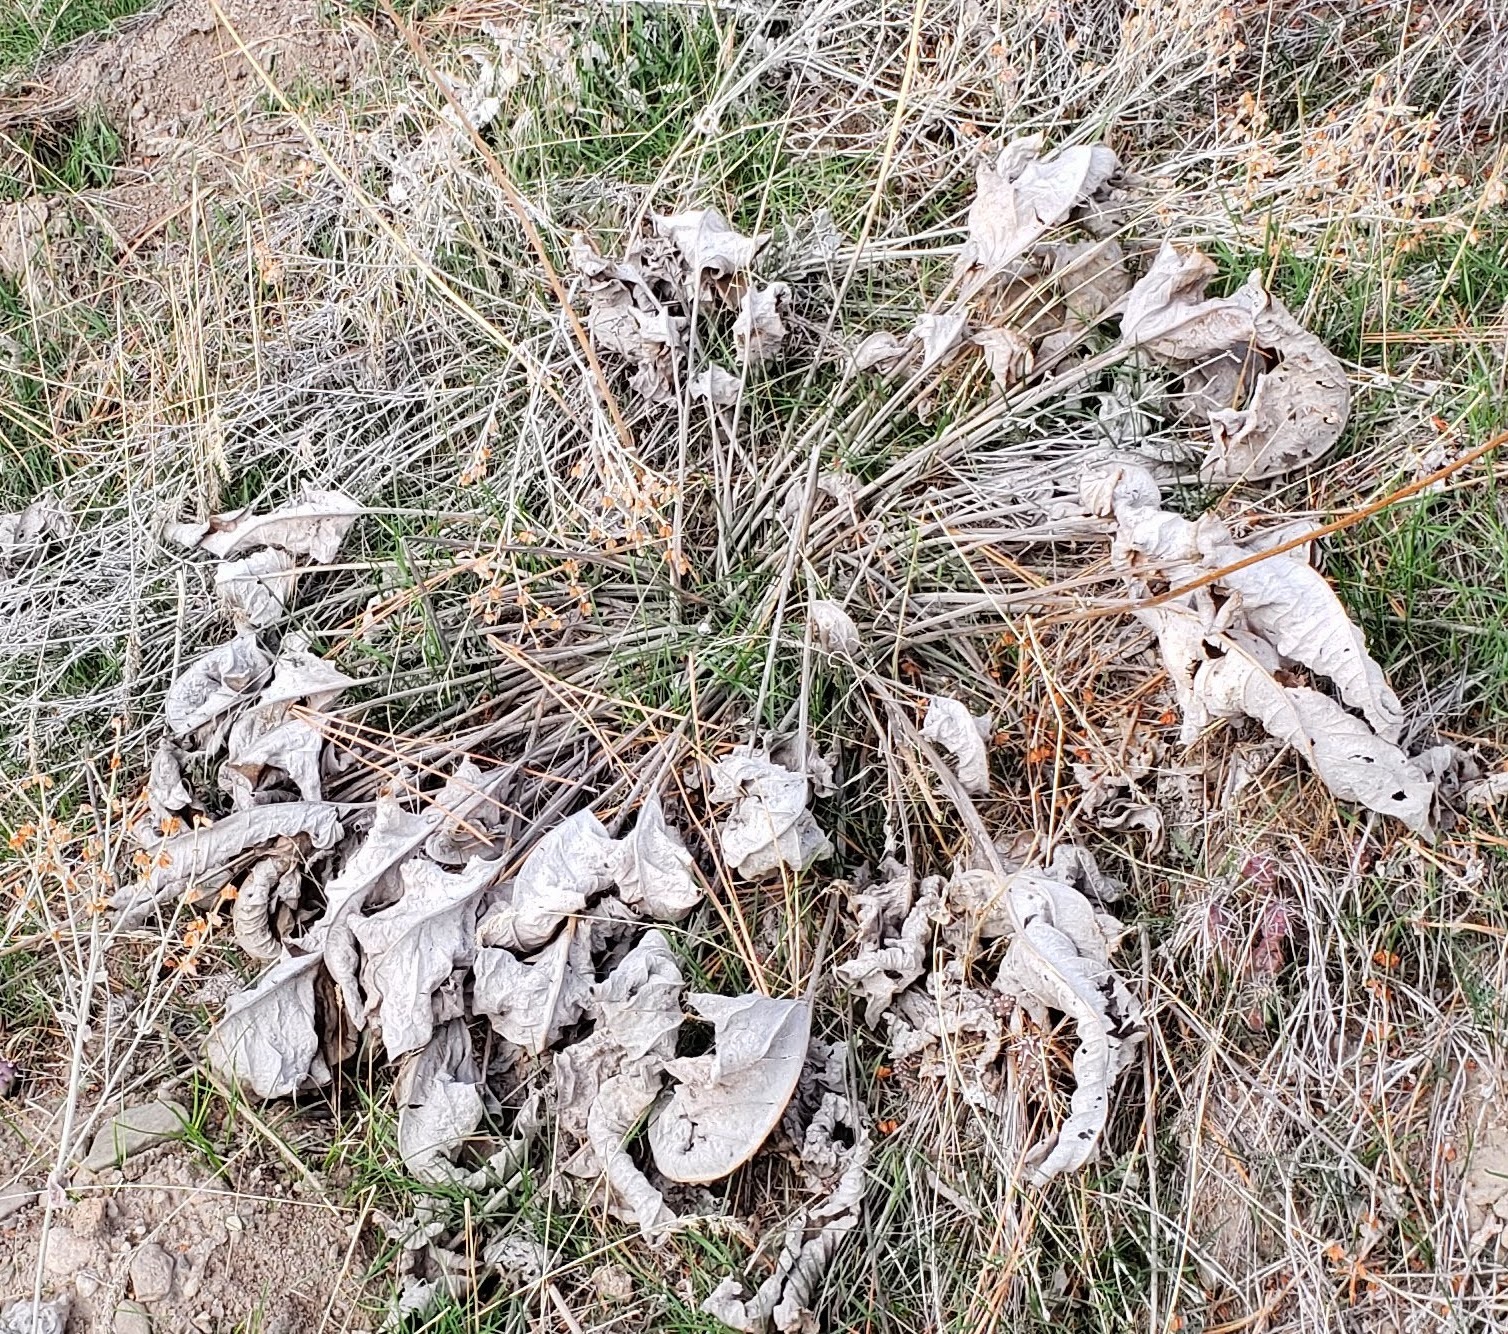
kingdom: Plantae
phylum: Tracheophyta
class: Magnoliopsida
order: Asterales
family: Asteraceae
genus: Wyethia
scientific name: Wyethia sagittata
